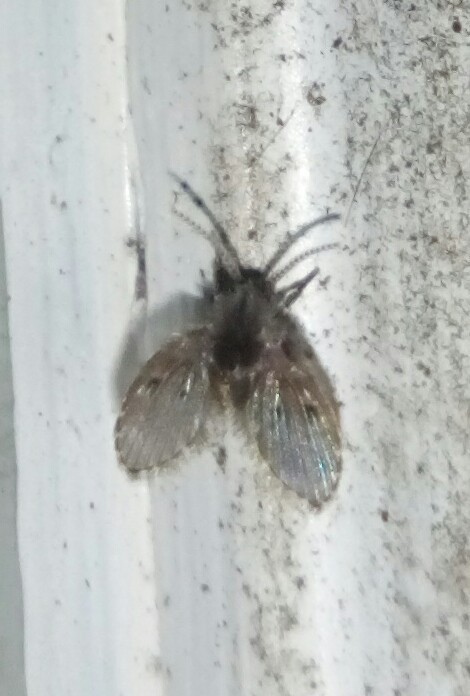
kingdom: Animalia
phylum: Arthropoda
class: Insecta
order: Diptera
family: Psychodidae
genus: Clogmia
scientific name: Clogmia albipunctatus
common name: White-spotted moth fly
